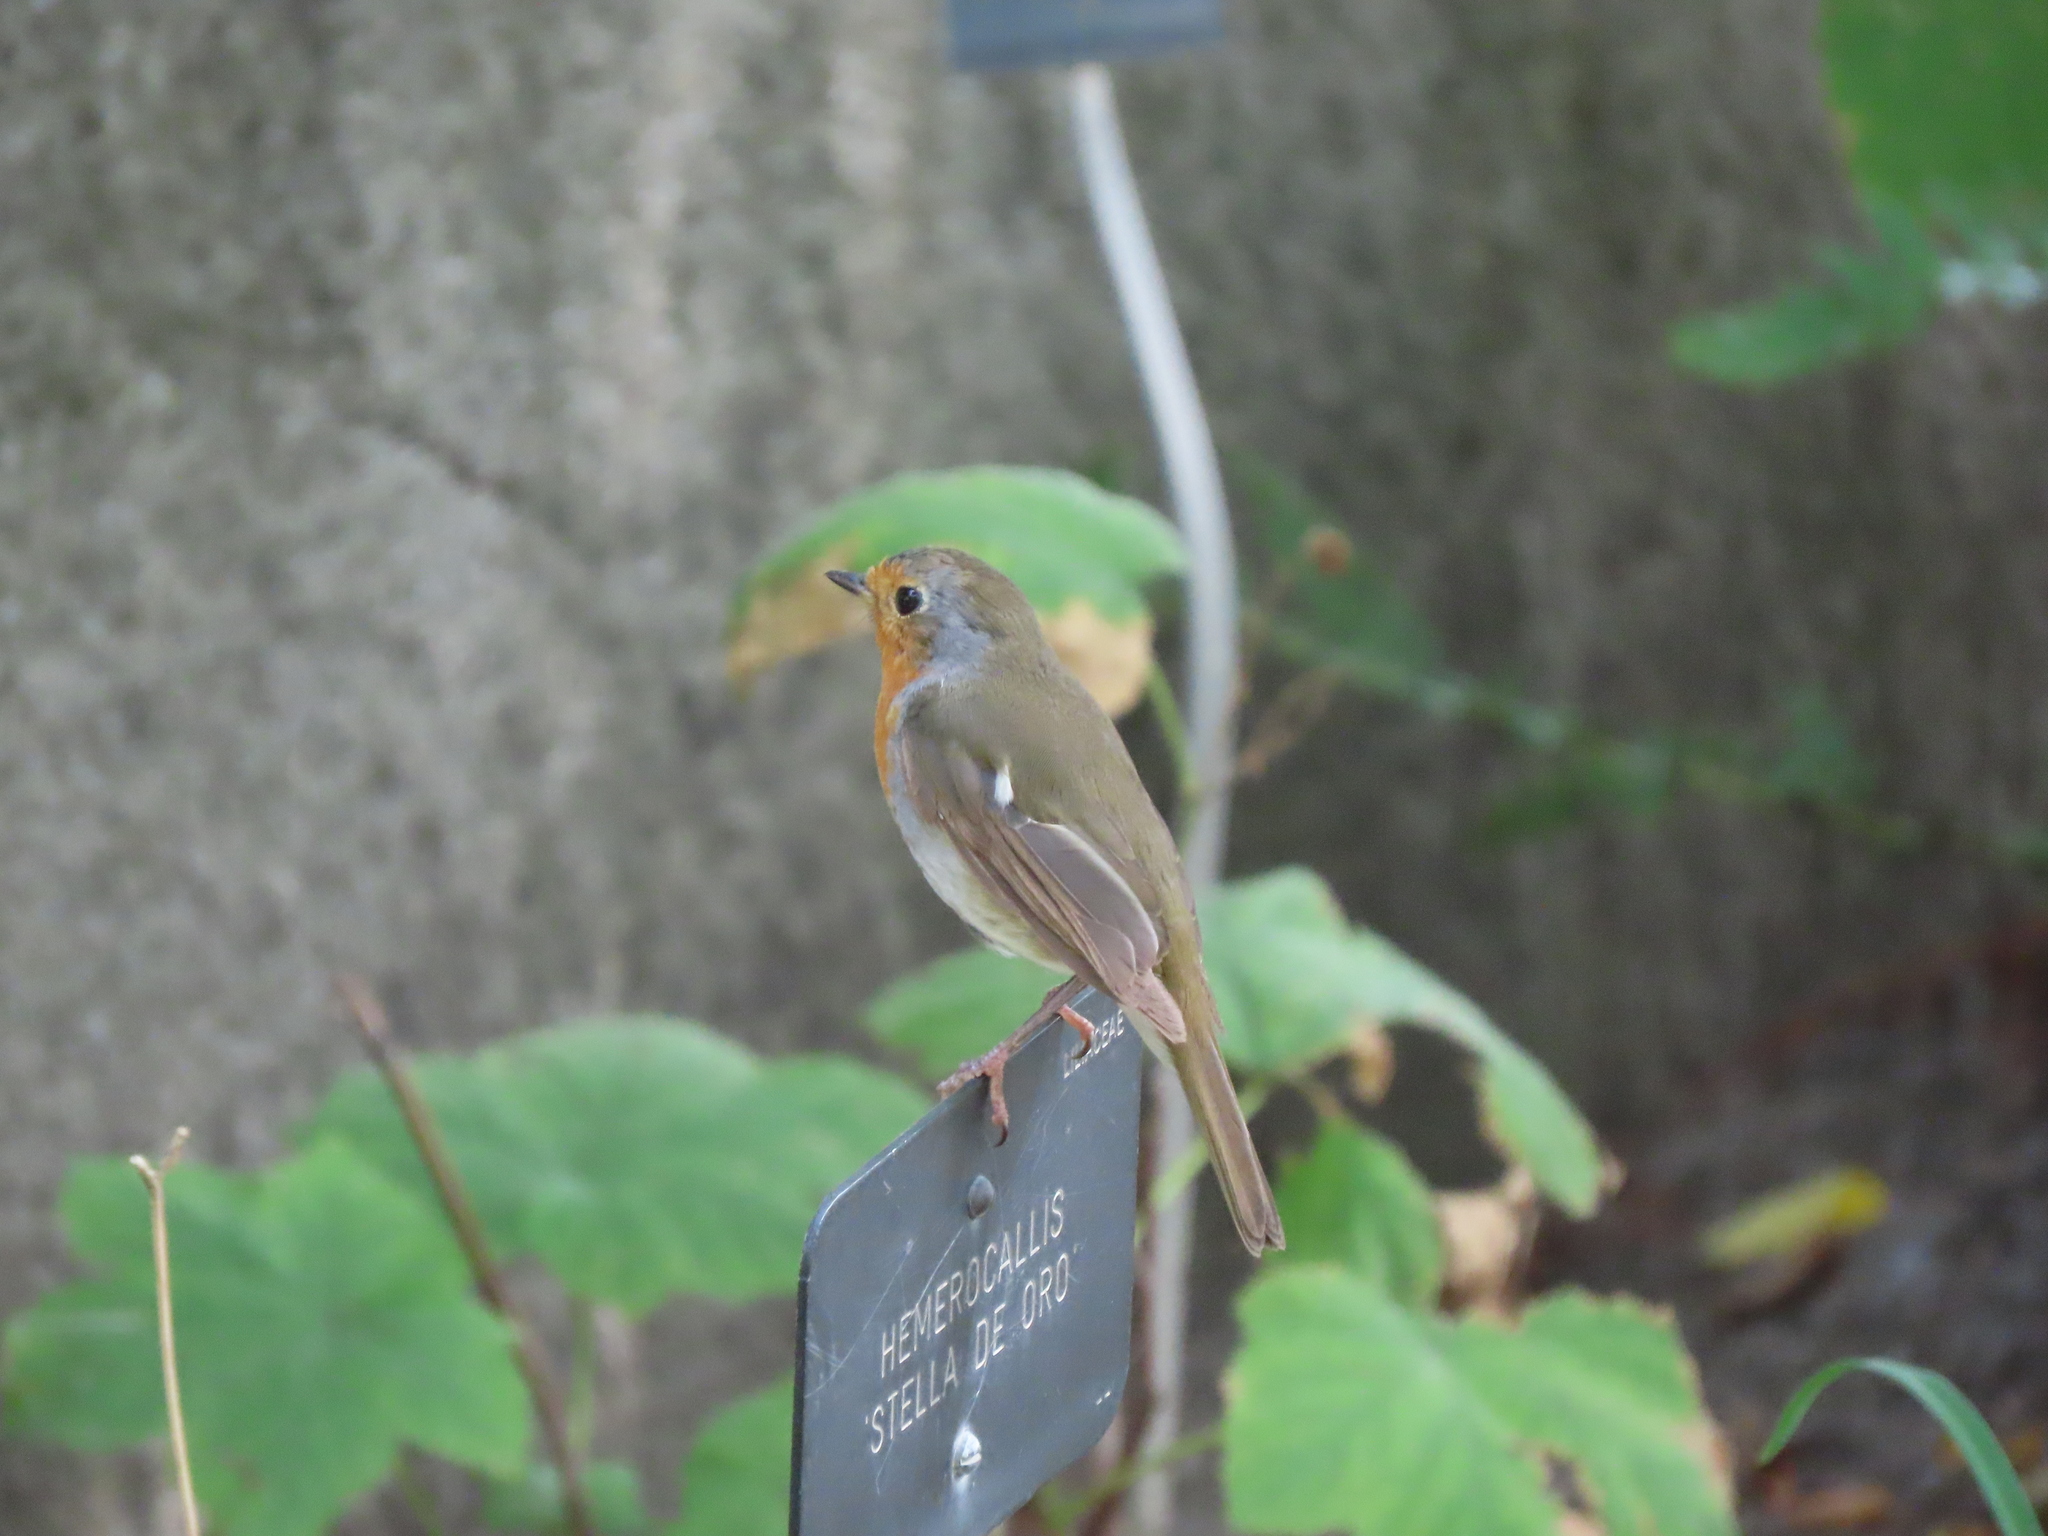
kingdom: Animalia
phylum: Chordata
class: Aves
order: Passeriformes
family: Muscicapidae
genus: Erithacus
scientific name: Erithacus rubecula
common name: European robin
